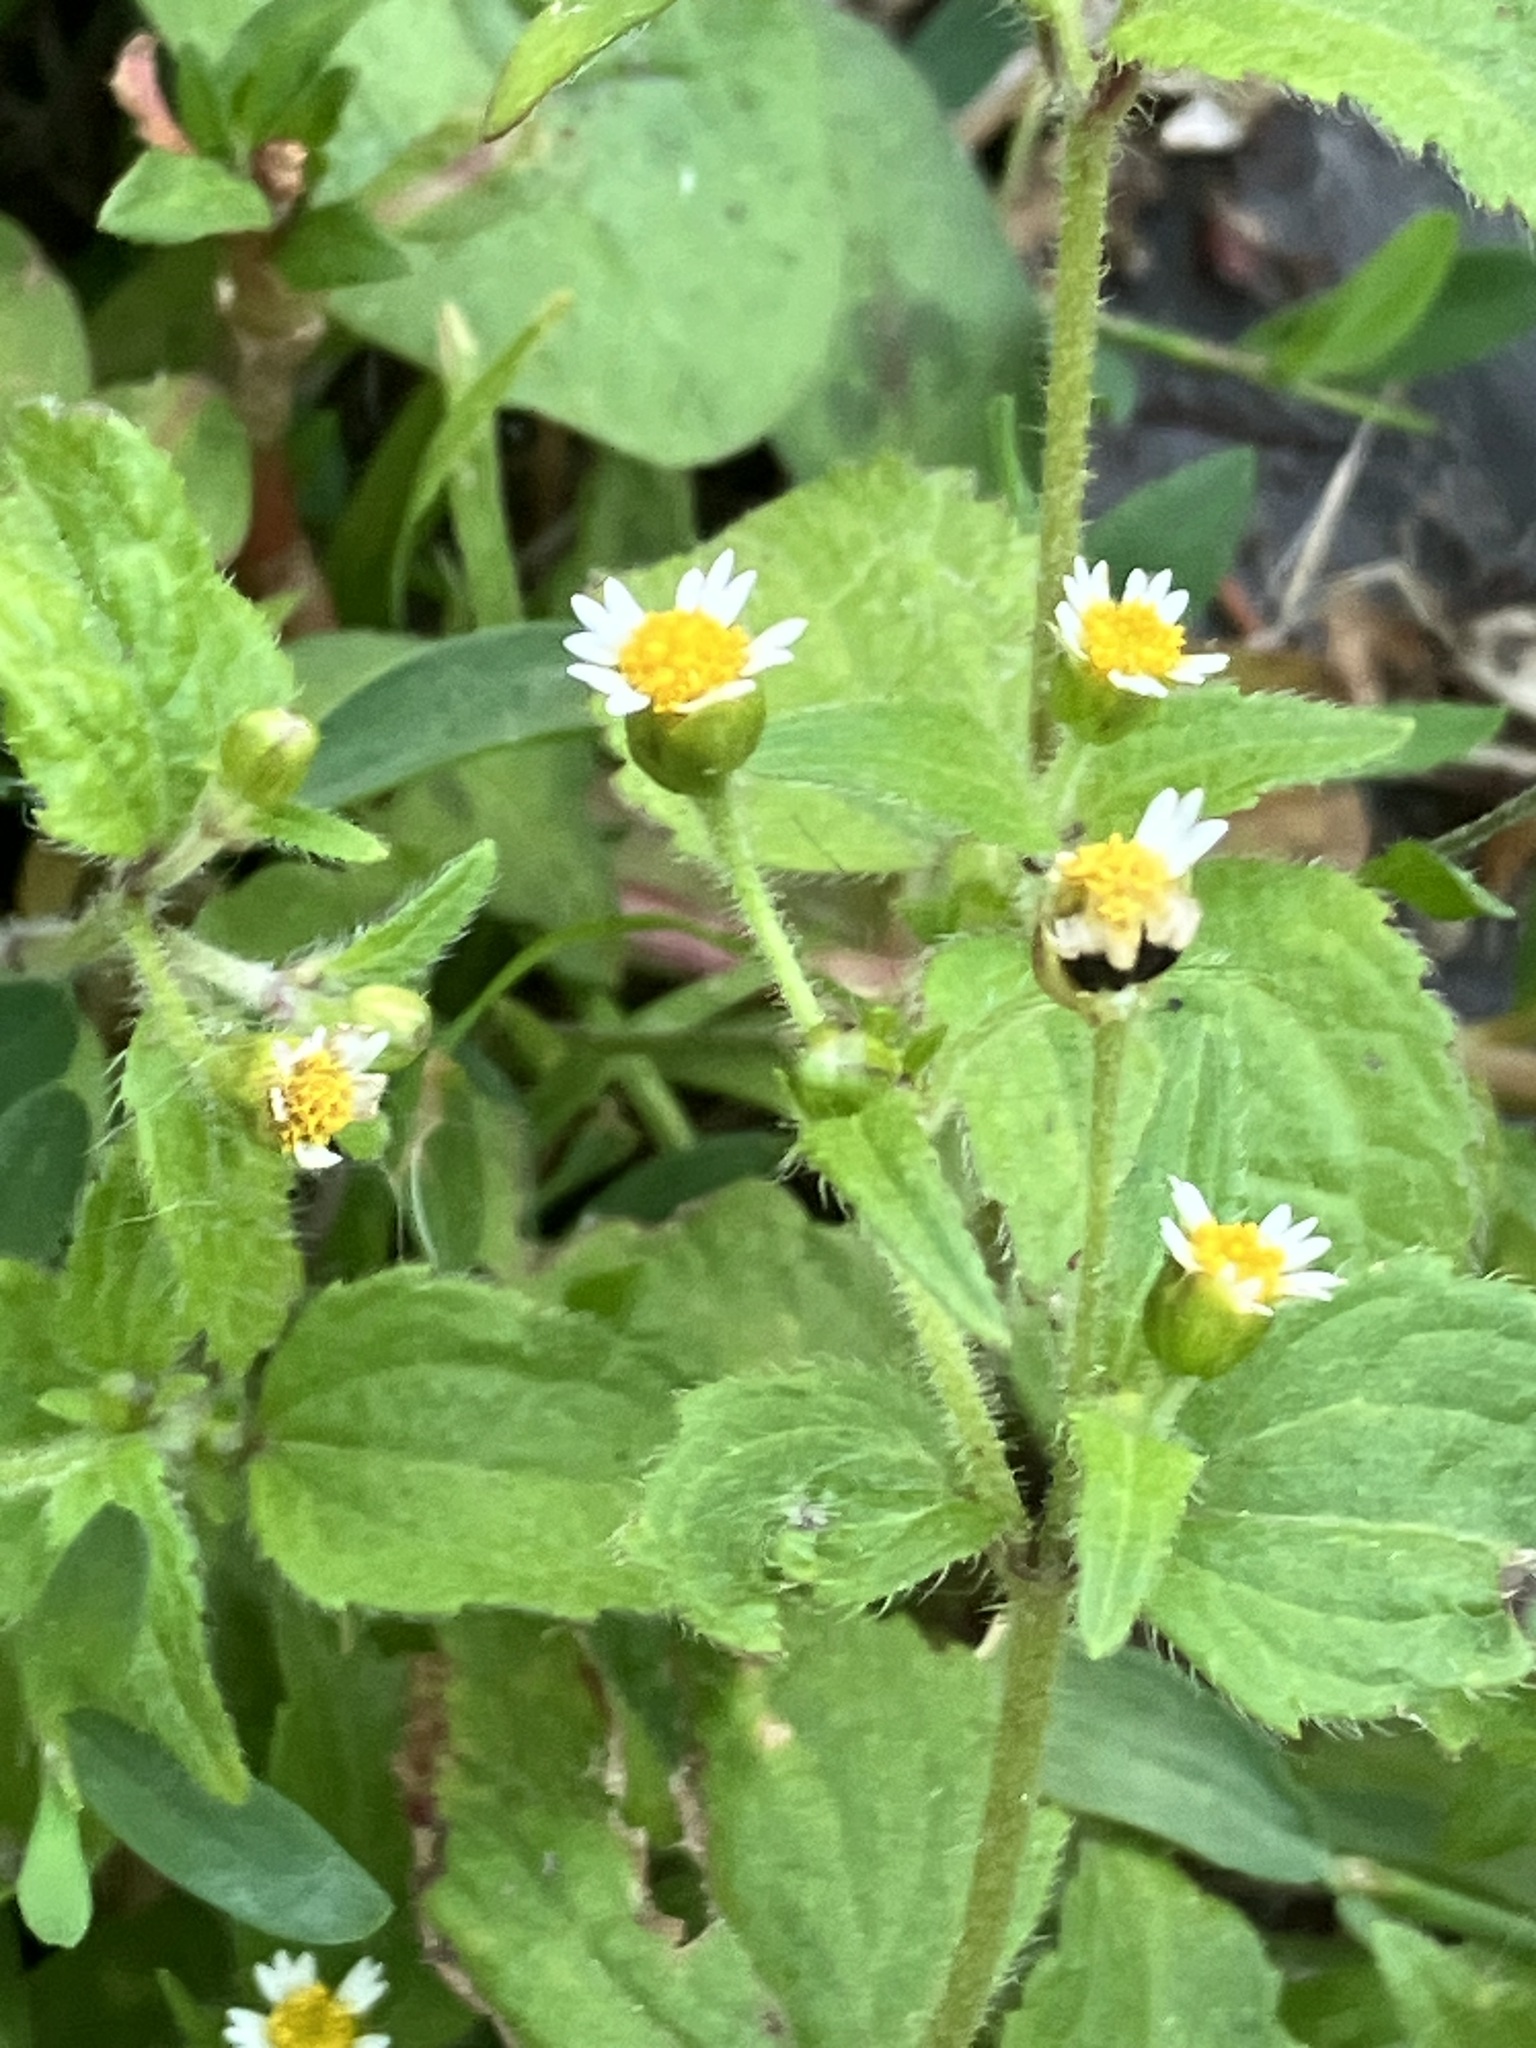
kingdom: Plantae
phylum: Tracheophyta
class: Magnoliopsida
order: Asterales
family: Asteraceae
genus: Galinsoga
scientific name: Galinsoga quadriradiata
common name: Shaggy soldier
